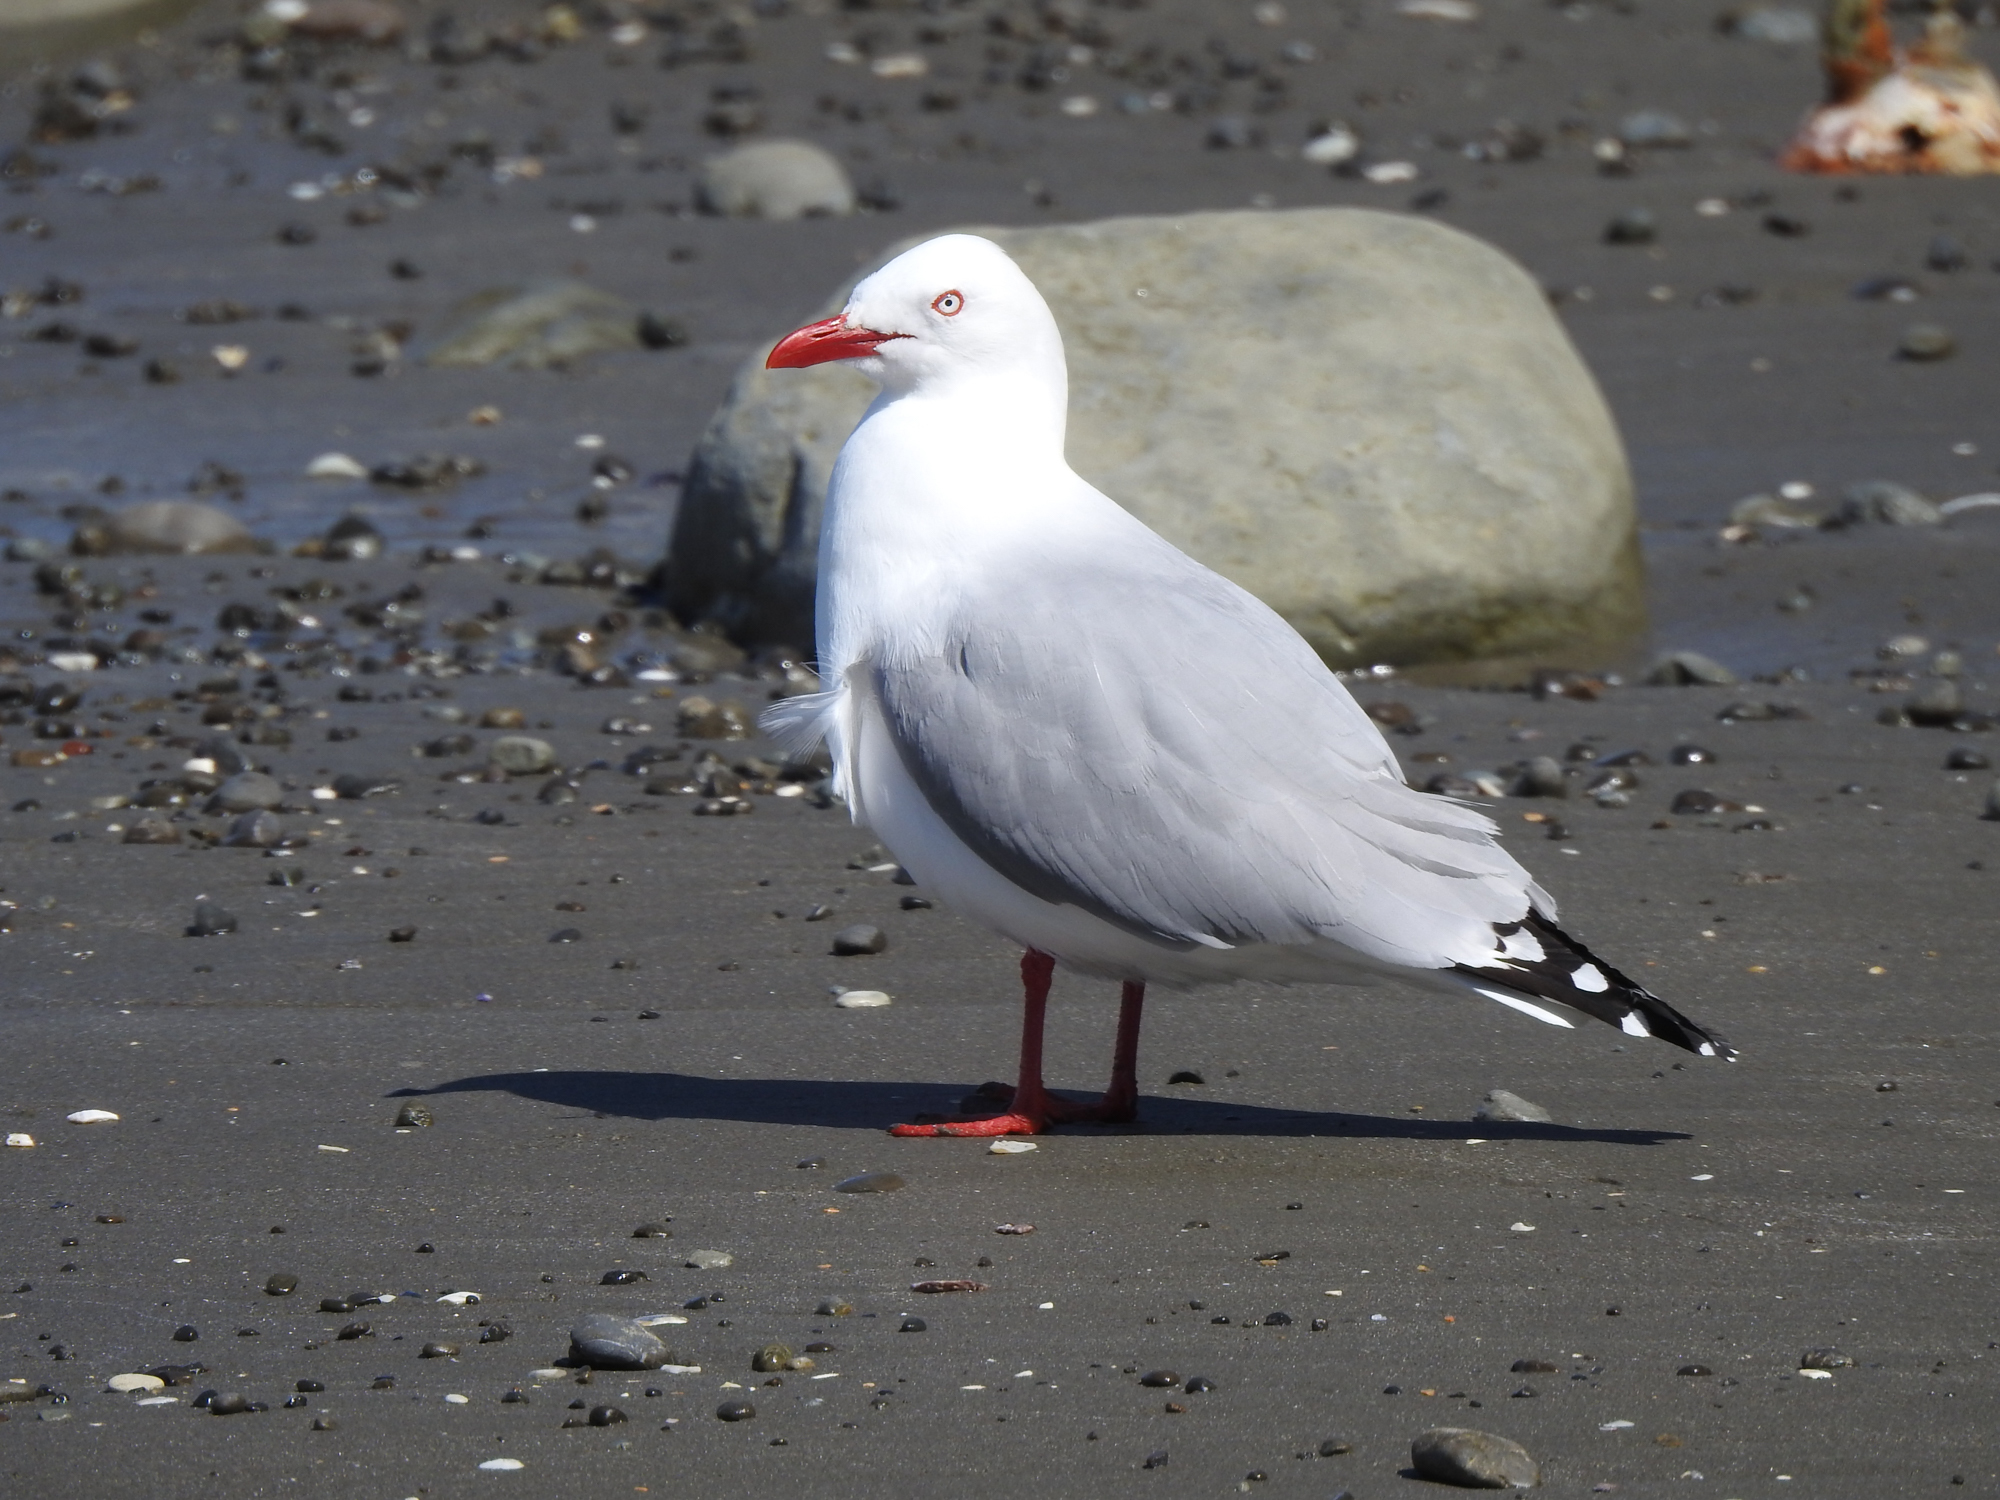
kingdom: Animalia
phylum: Chordata
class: Aves
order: Charadriiformes
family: Laridae
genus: Chroicocephalus
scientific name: Chroicocephalus novaehollandiae
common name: Silver gull
